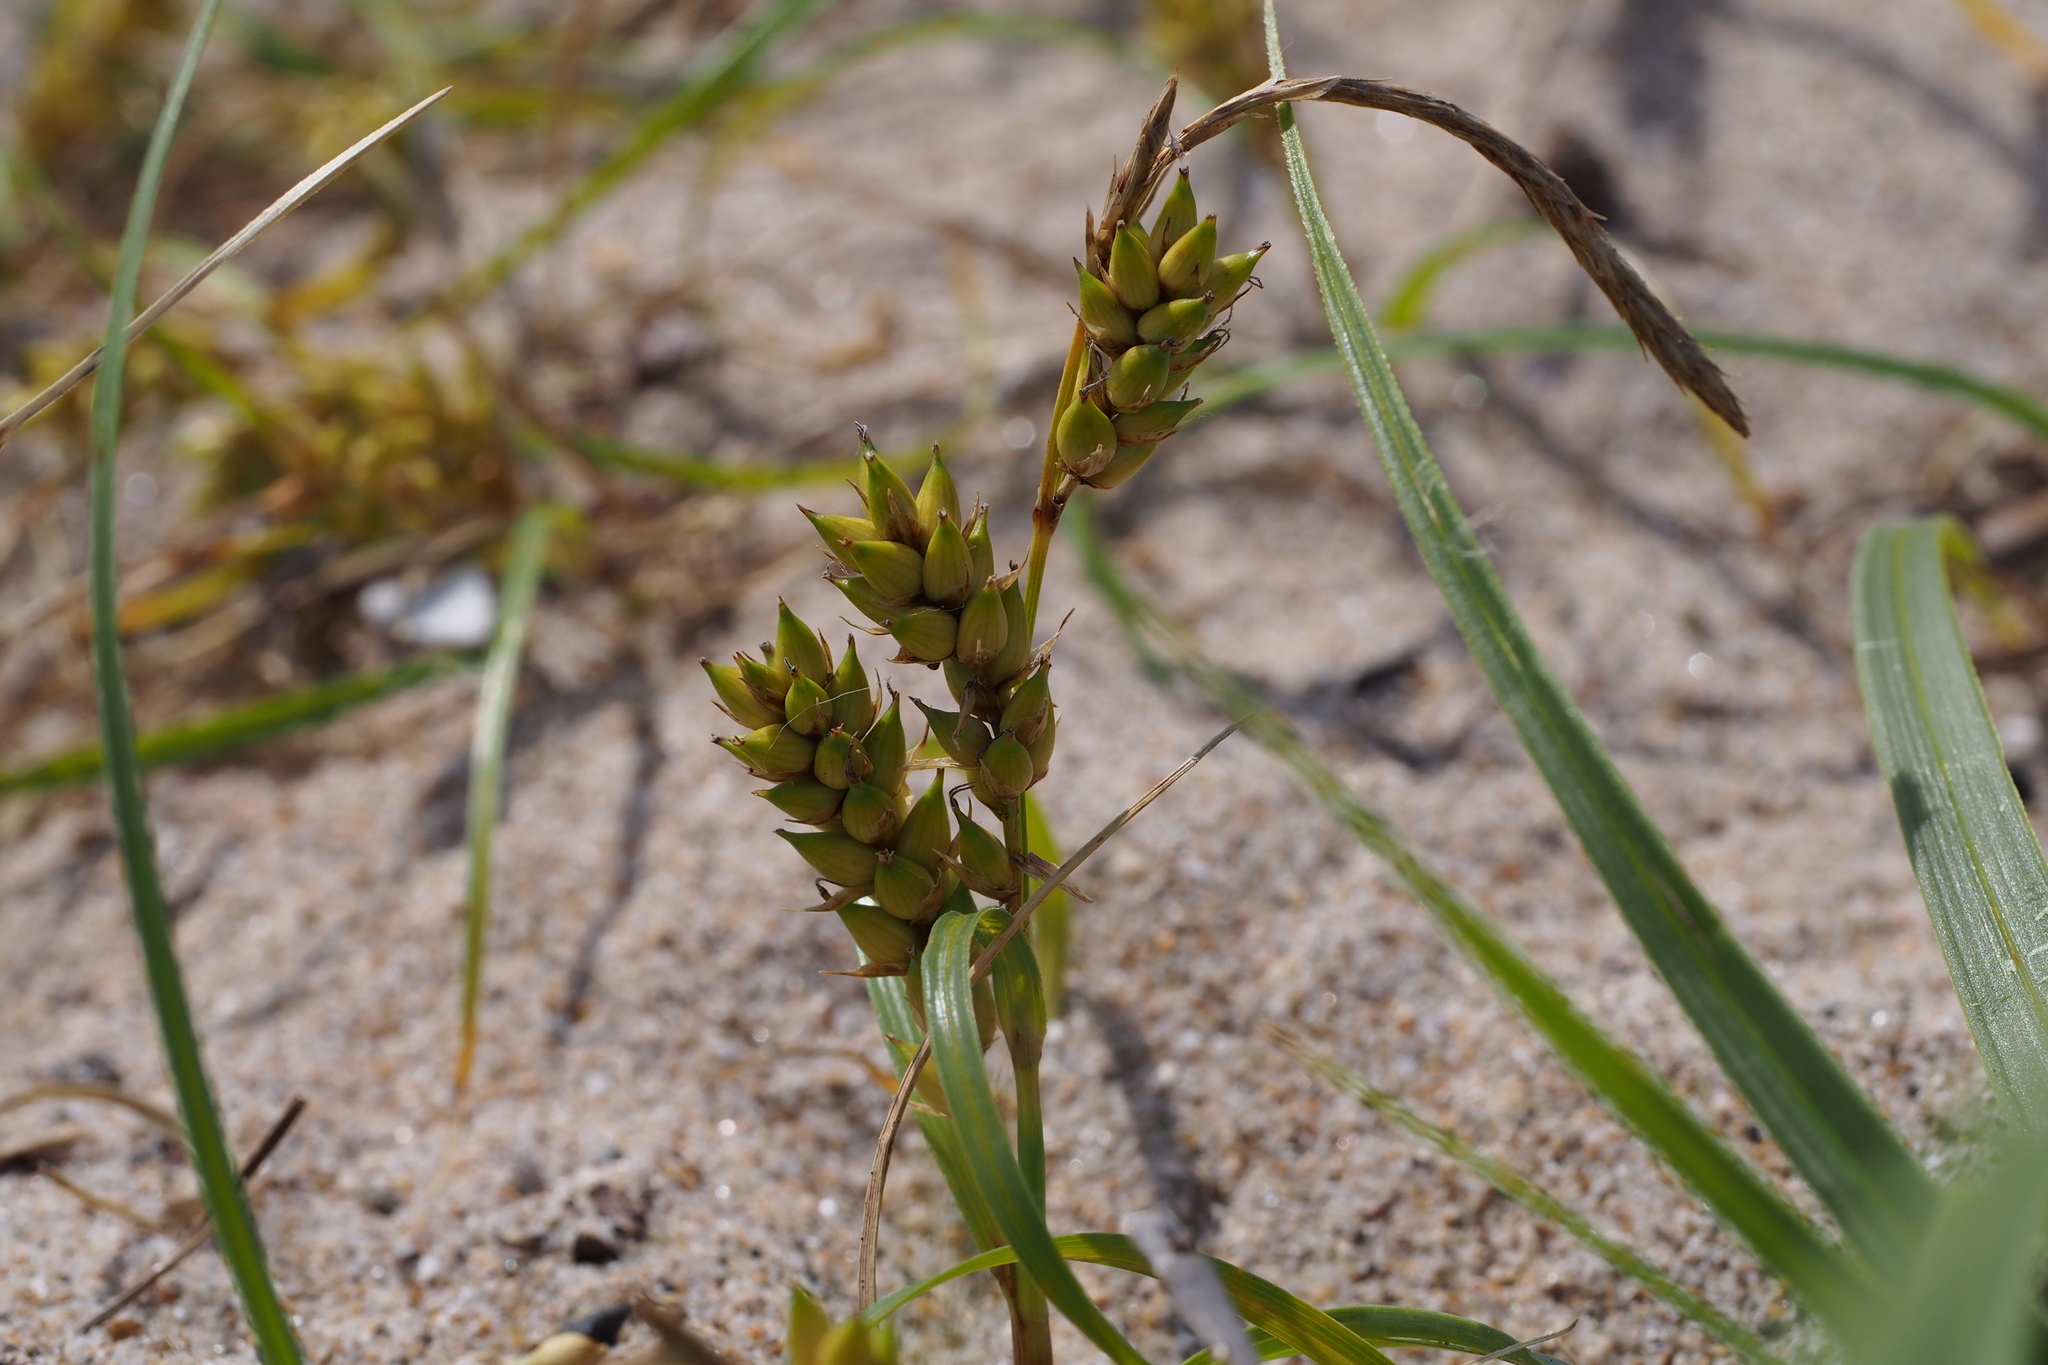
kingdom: Plantae
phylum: Tracheophyta
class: Liliopsida
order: Poales
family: Cyperaceae
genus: Carex
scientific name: Carex pumila
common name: Dwarf sedge
